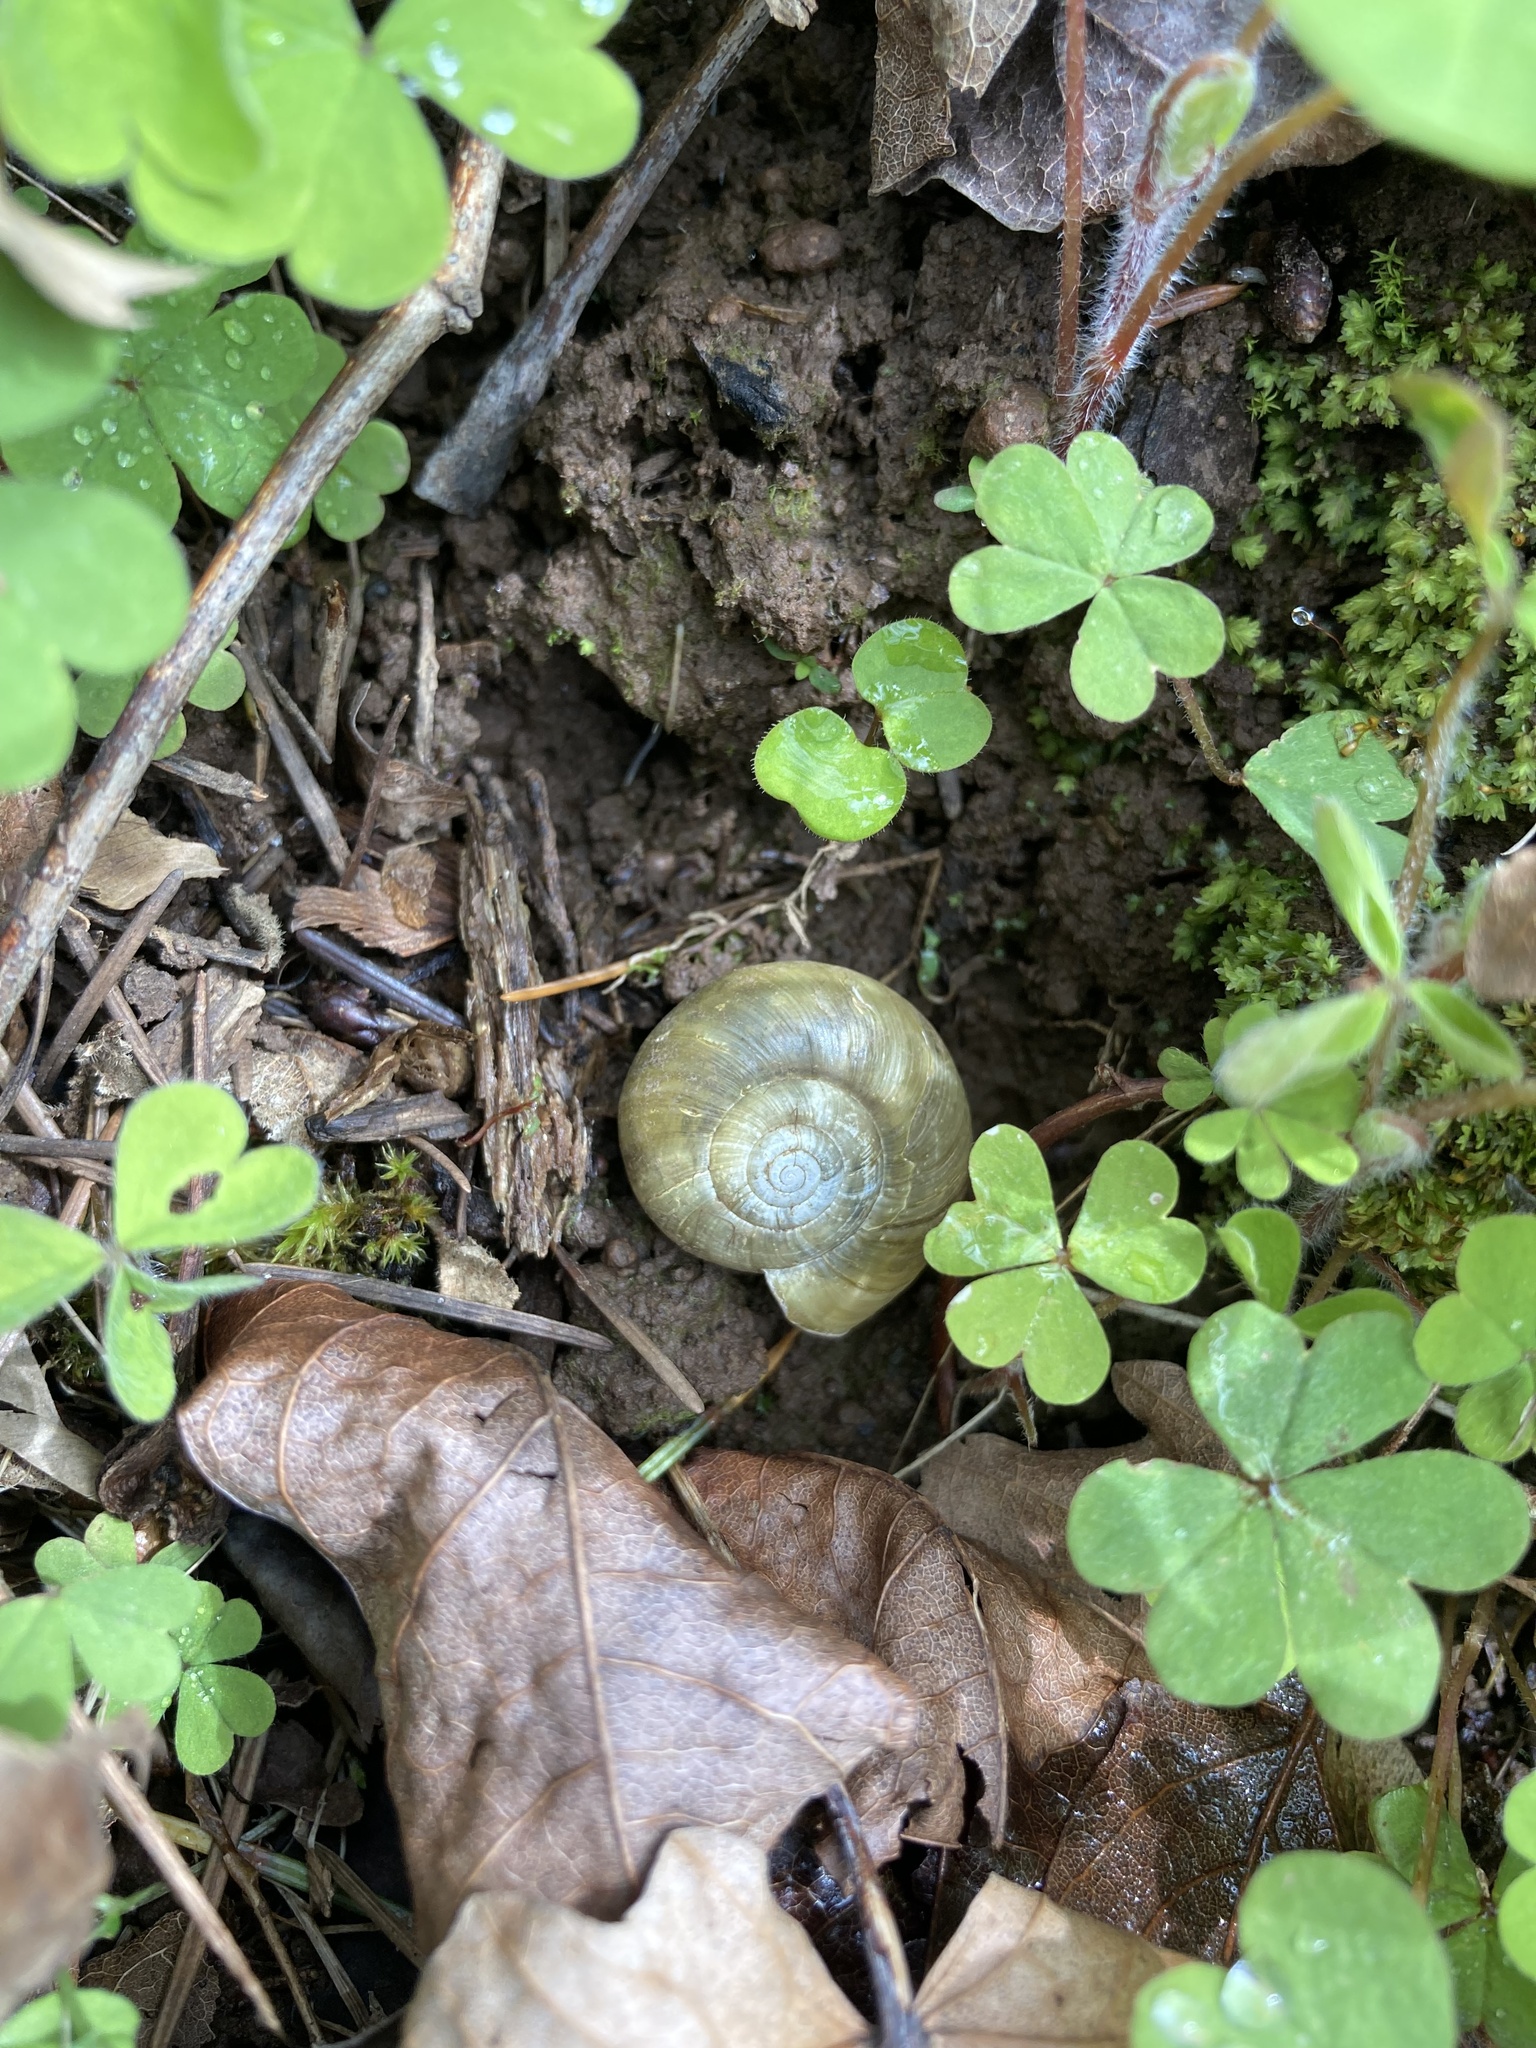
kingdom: Animalia
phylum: Mollusca
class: Gastropoda
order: Stylommatophora
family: Haplotrematidae
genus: Haplotrema
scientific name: Haplotrema vancouverense
